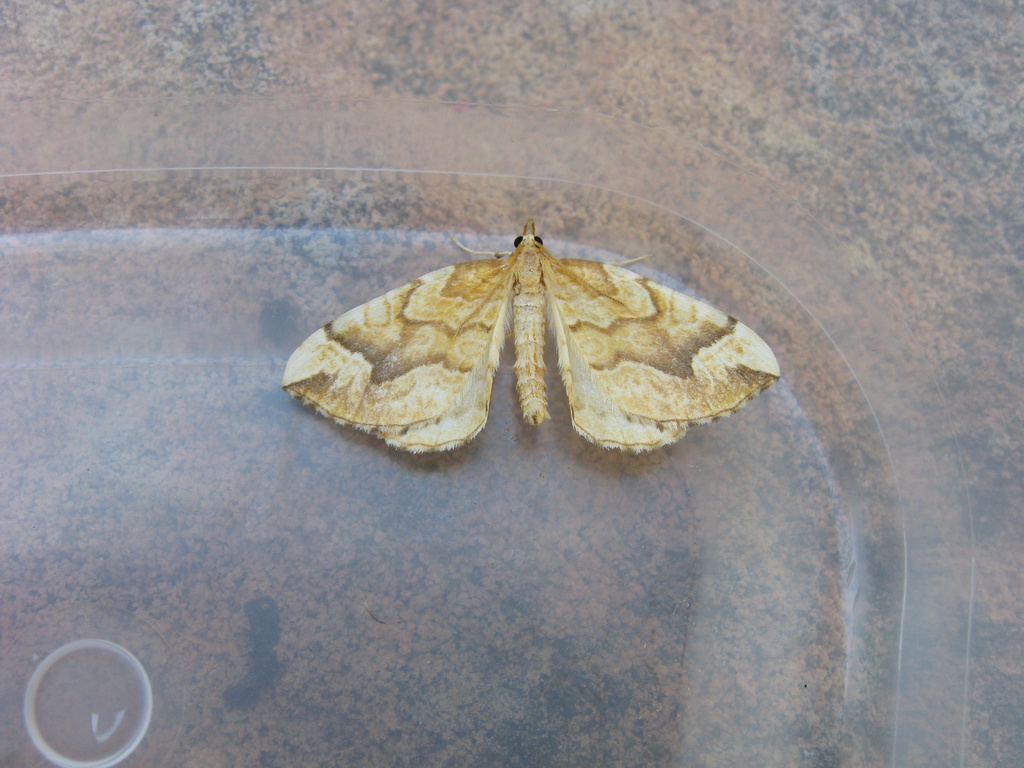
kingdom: Animalia
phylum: Arthropoda
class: Insecta
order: Lepidoptera
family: Geometridae
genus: Eulithis
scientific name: Eulithis mellinata
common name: Spinach
